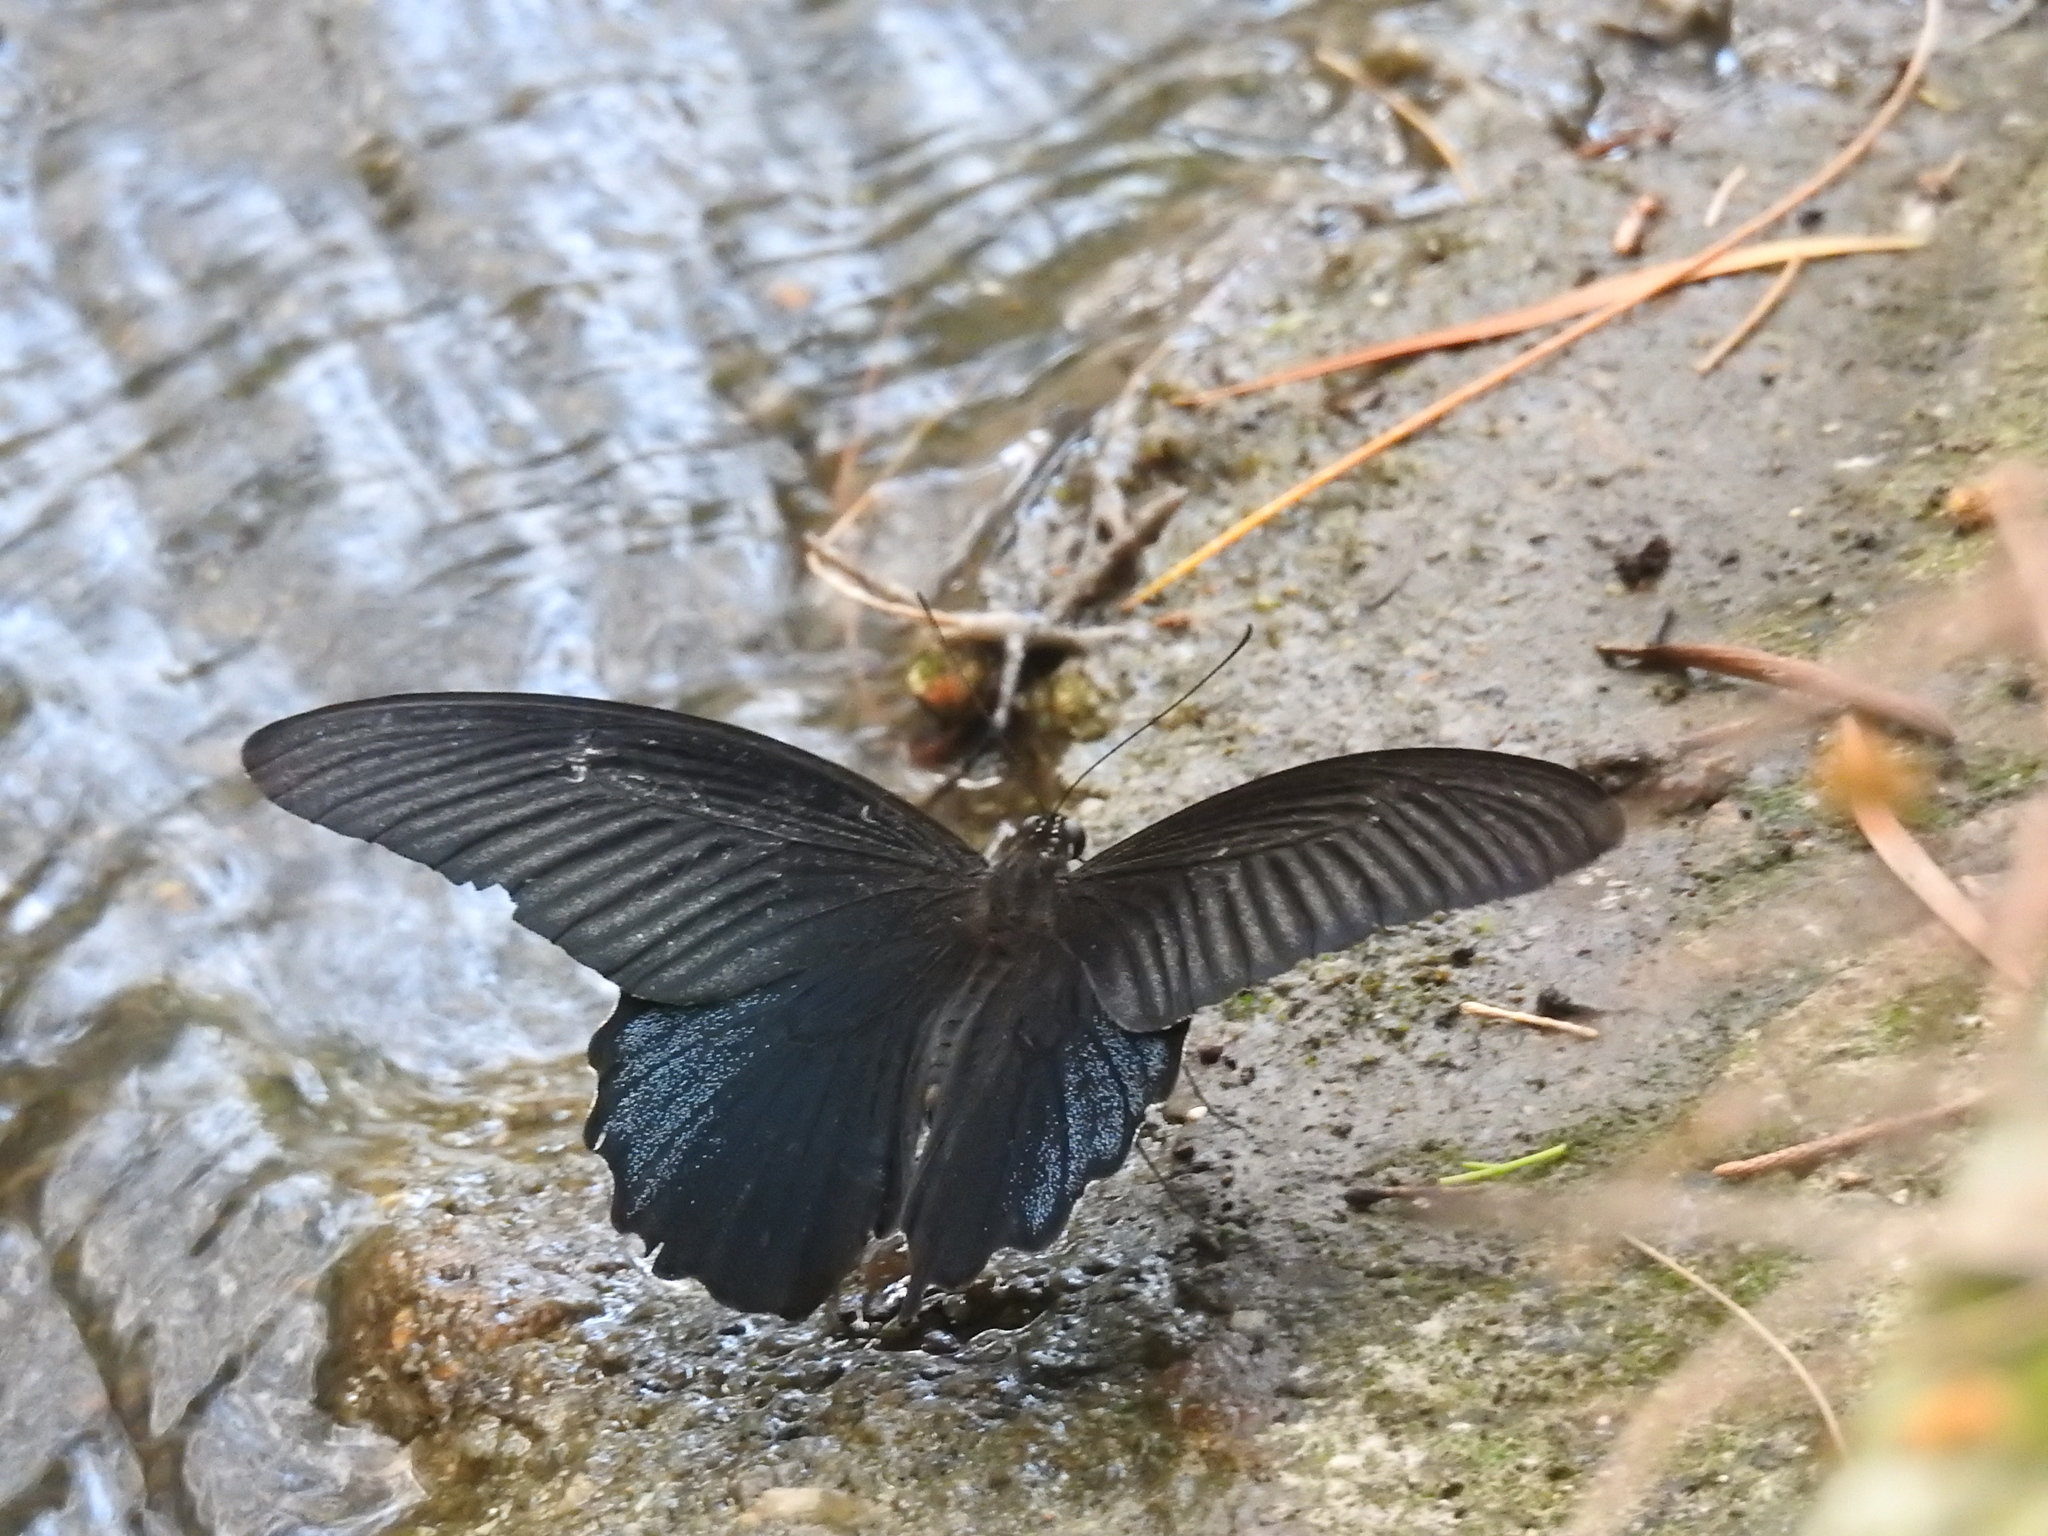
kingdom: Animalia
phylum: Arthropoda
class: Insecta
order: Lepidoptera
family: Papilionidae
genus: Papilio
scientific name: Papilio protenor
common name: Spangle
